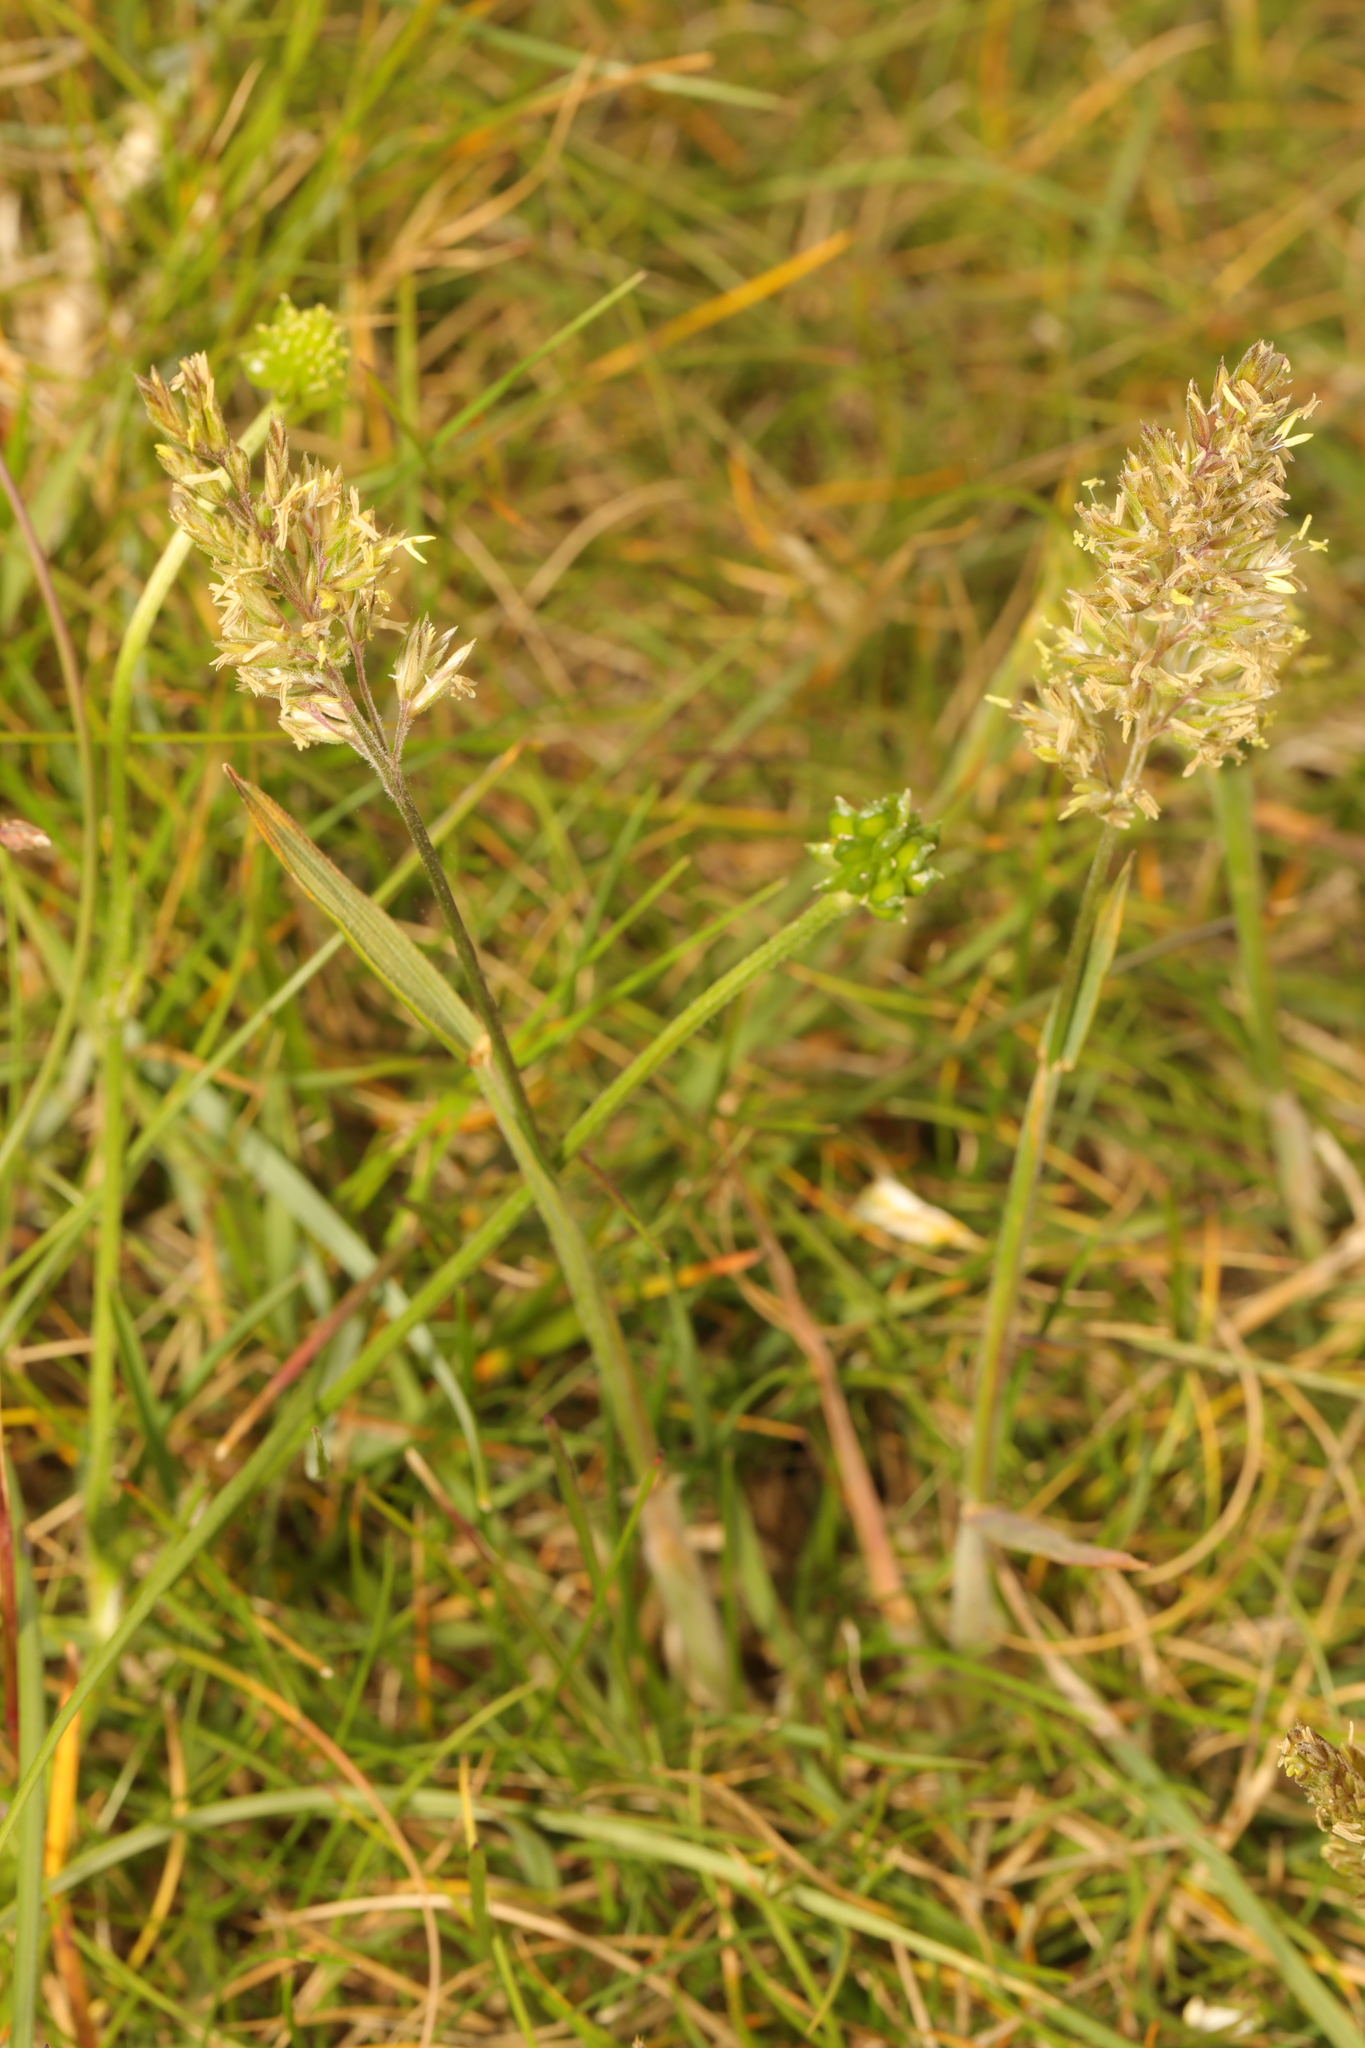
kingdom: Plantae
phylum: Tracheophyta
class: Liliopsida
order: Poales
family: Poaceae
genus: Koeleria
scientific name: Koeleria macrantha
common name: Crested hair-grass
